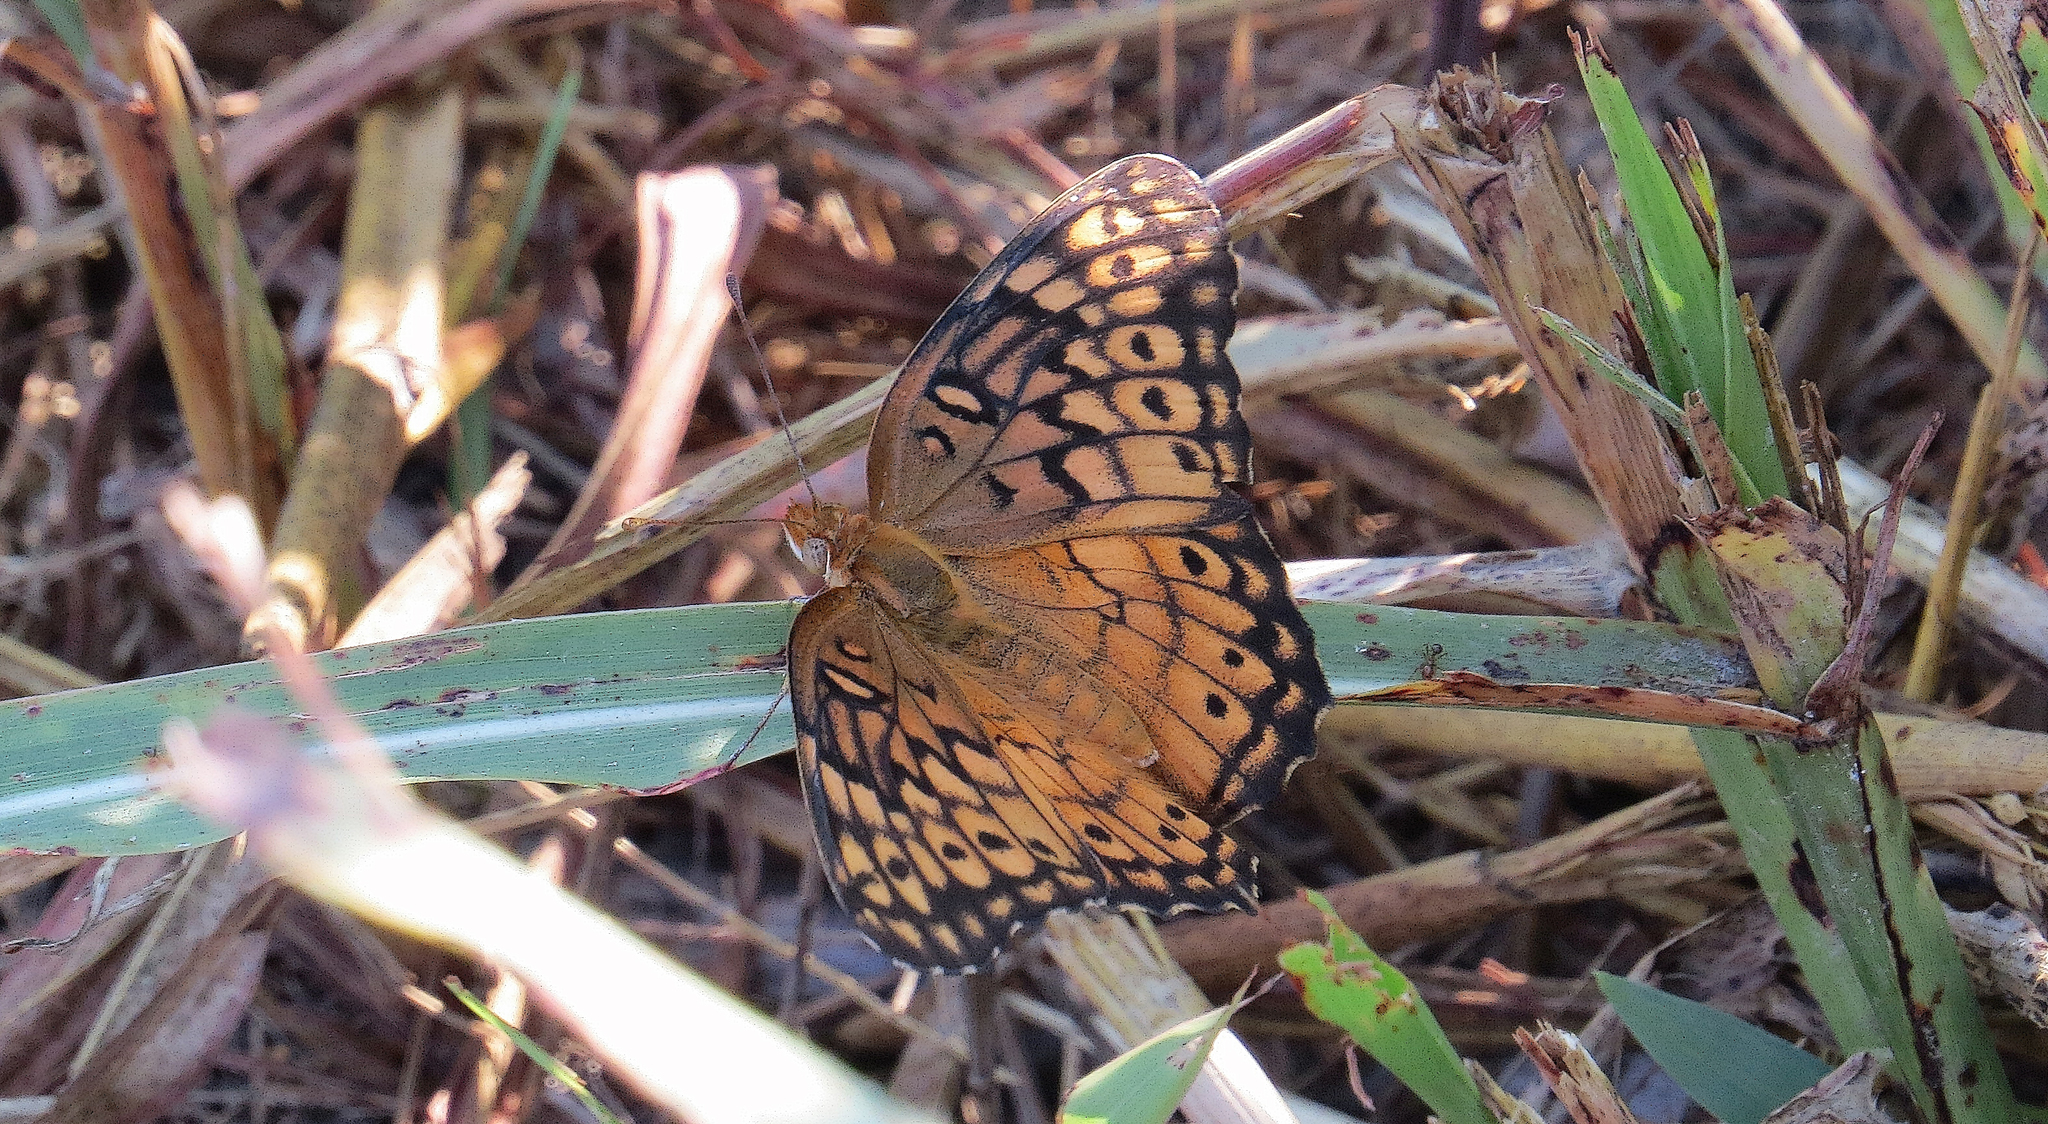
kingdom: Animalia
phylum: Arthropoda
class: Insecta
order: Lepidoptera
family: Nymphalidae
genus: Euptoieta
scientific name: Euptoieta claudia
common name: Variegated fritillary
